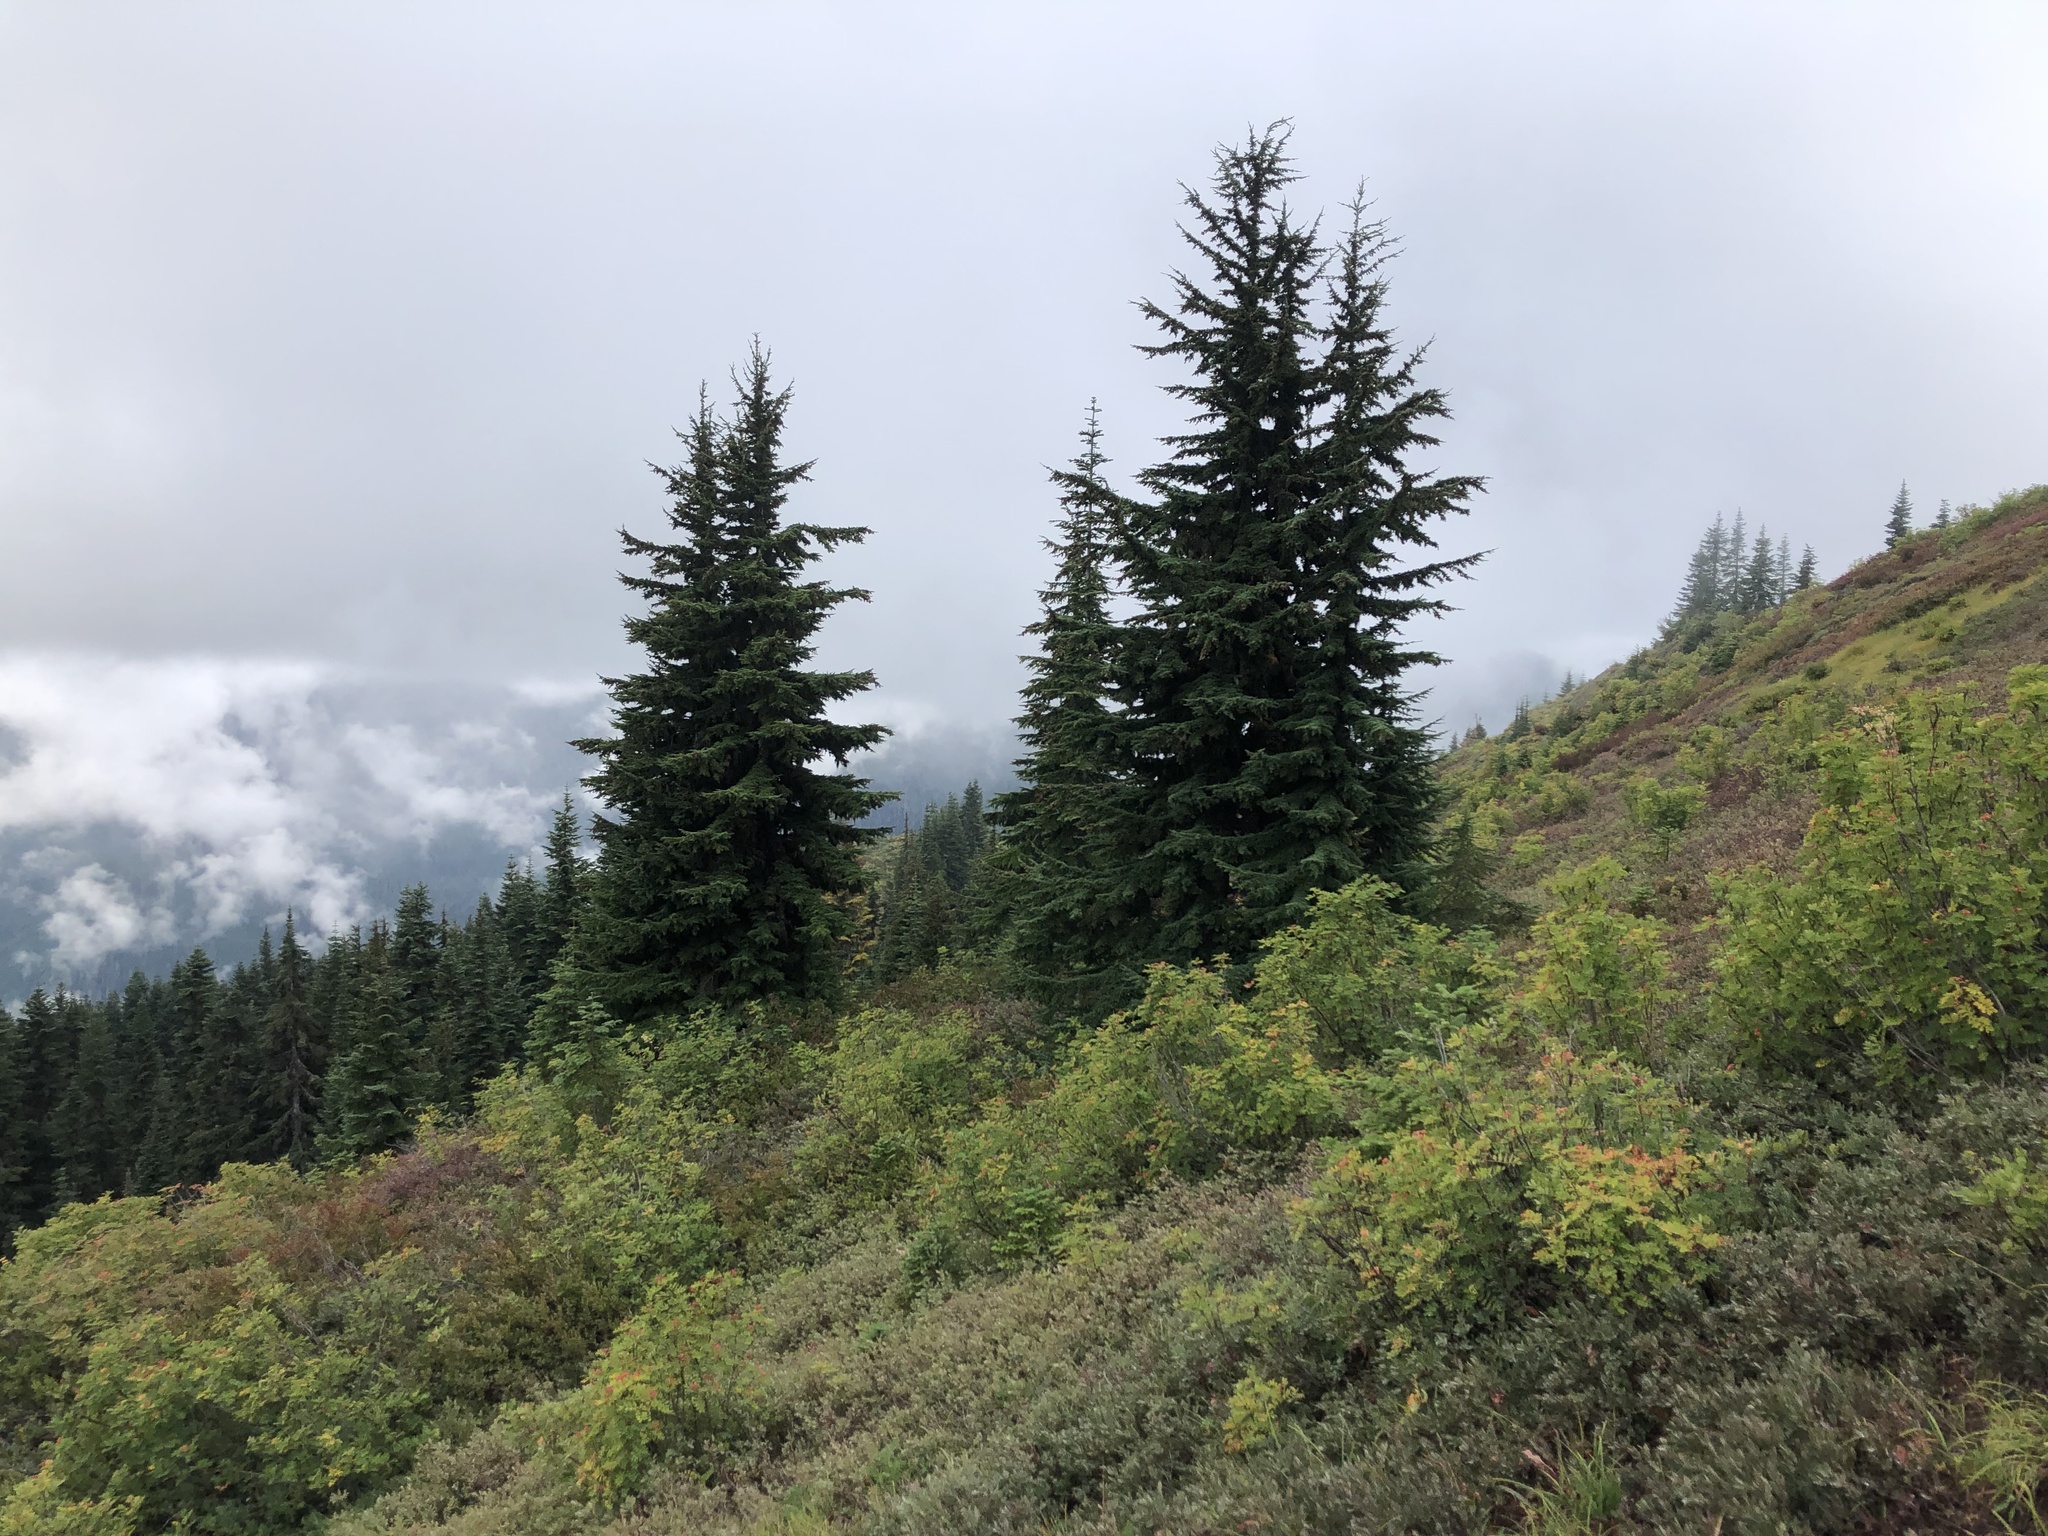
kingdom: Plantae
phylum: Tracheophyta
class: Pinopsida
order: Pinales
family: Pinaceae
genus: Tsuga
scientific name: Tsuga mertensiana
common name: Mountain hemlock
